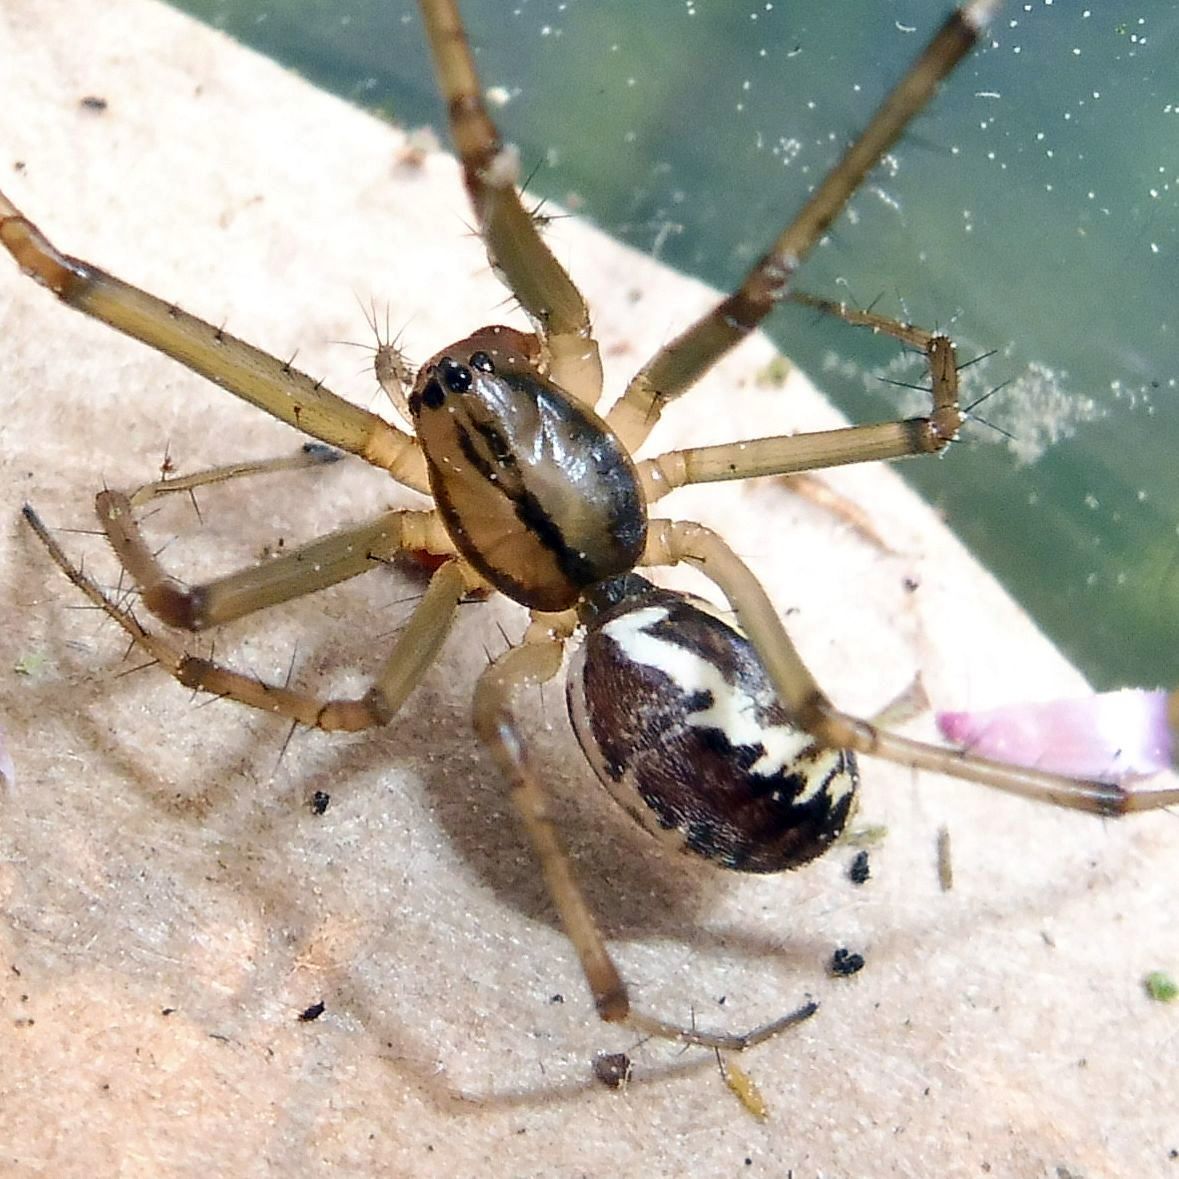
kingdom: Animalia
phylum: Arthropoda
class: Arachnida
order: Araneae
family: Linyphiidae
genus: Linyphia
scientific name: Linyphia triangularis
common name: Money spider
